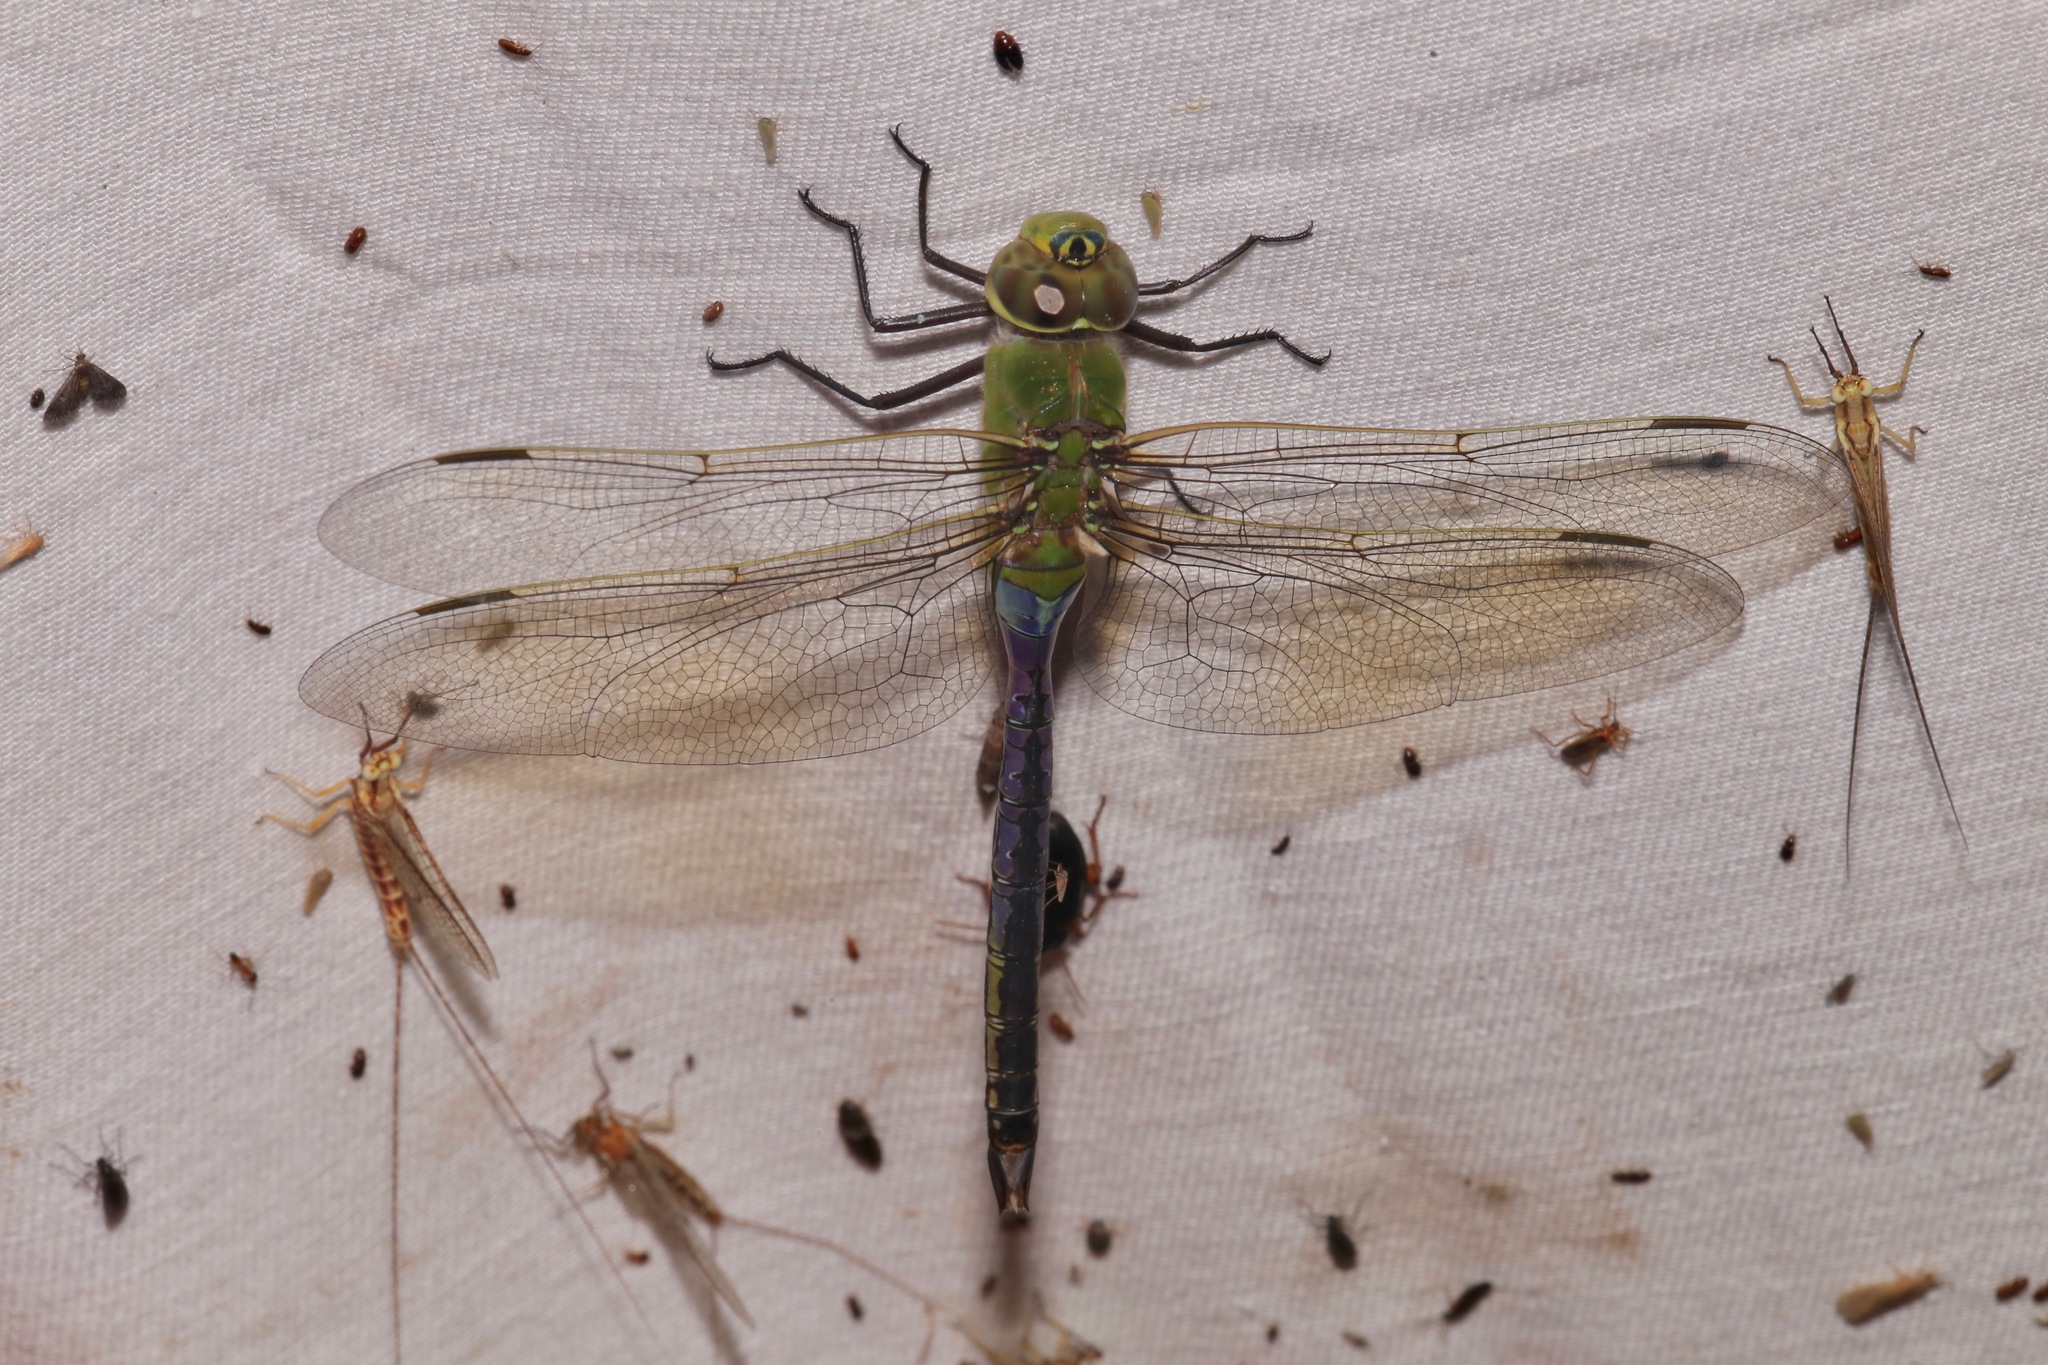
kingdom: Animalia
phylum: Arthropoda
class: Insecta
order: Odonata
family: Aeshnidae
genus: Anax
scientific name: Anax junius
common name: Common green darner
